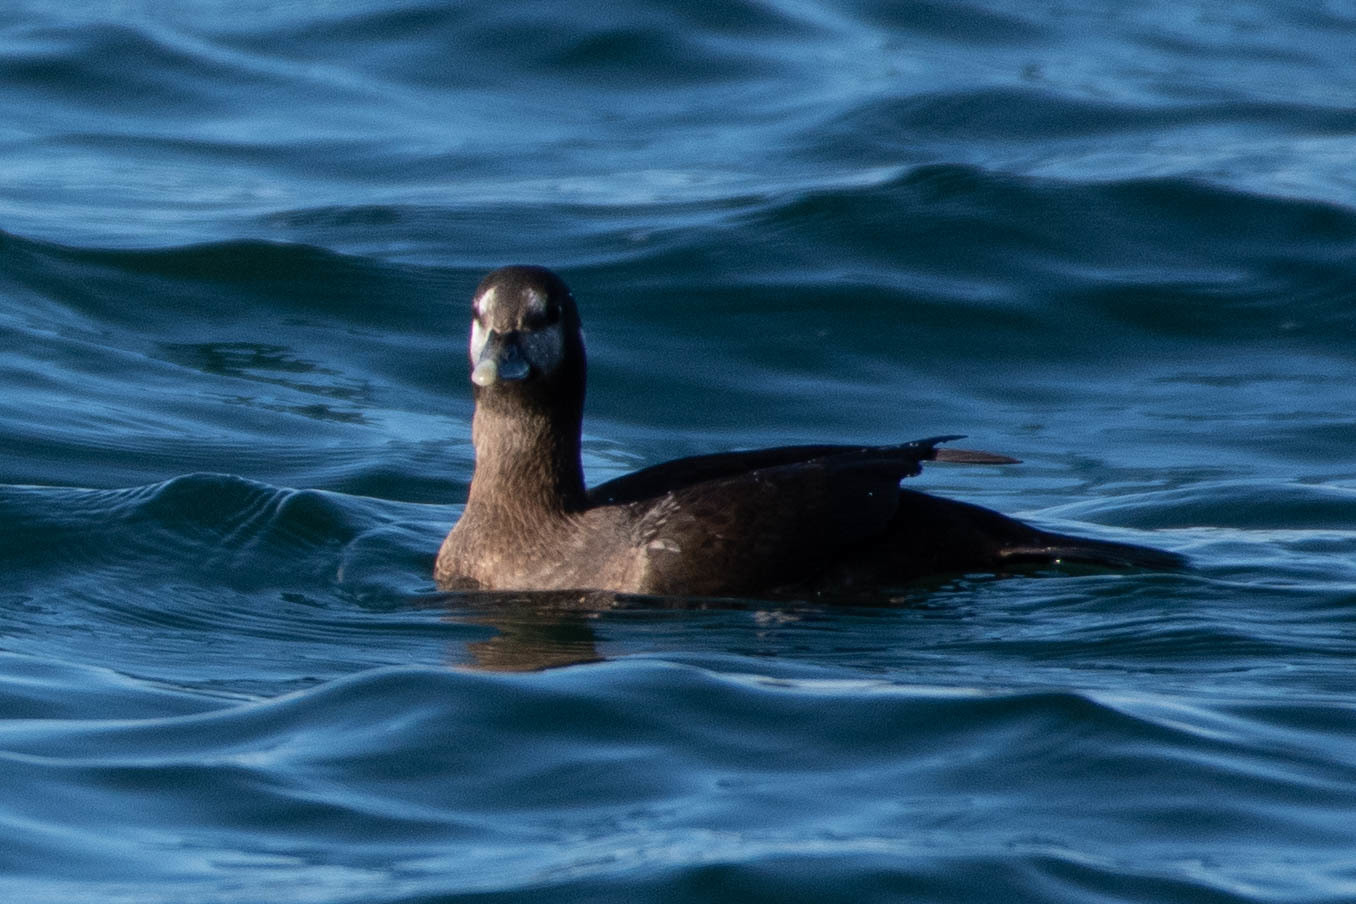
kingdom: Animalia
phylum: Chordata
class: Aves
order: Anseriformes
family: Anatidae
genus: Histrionicus
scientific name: Histrionicus histrionicus
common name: Harlequin duck
